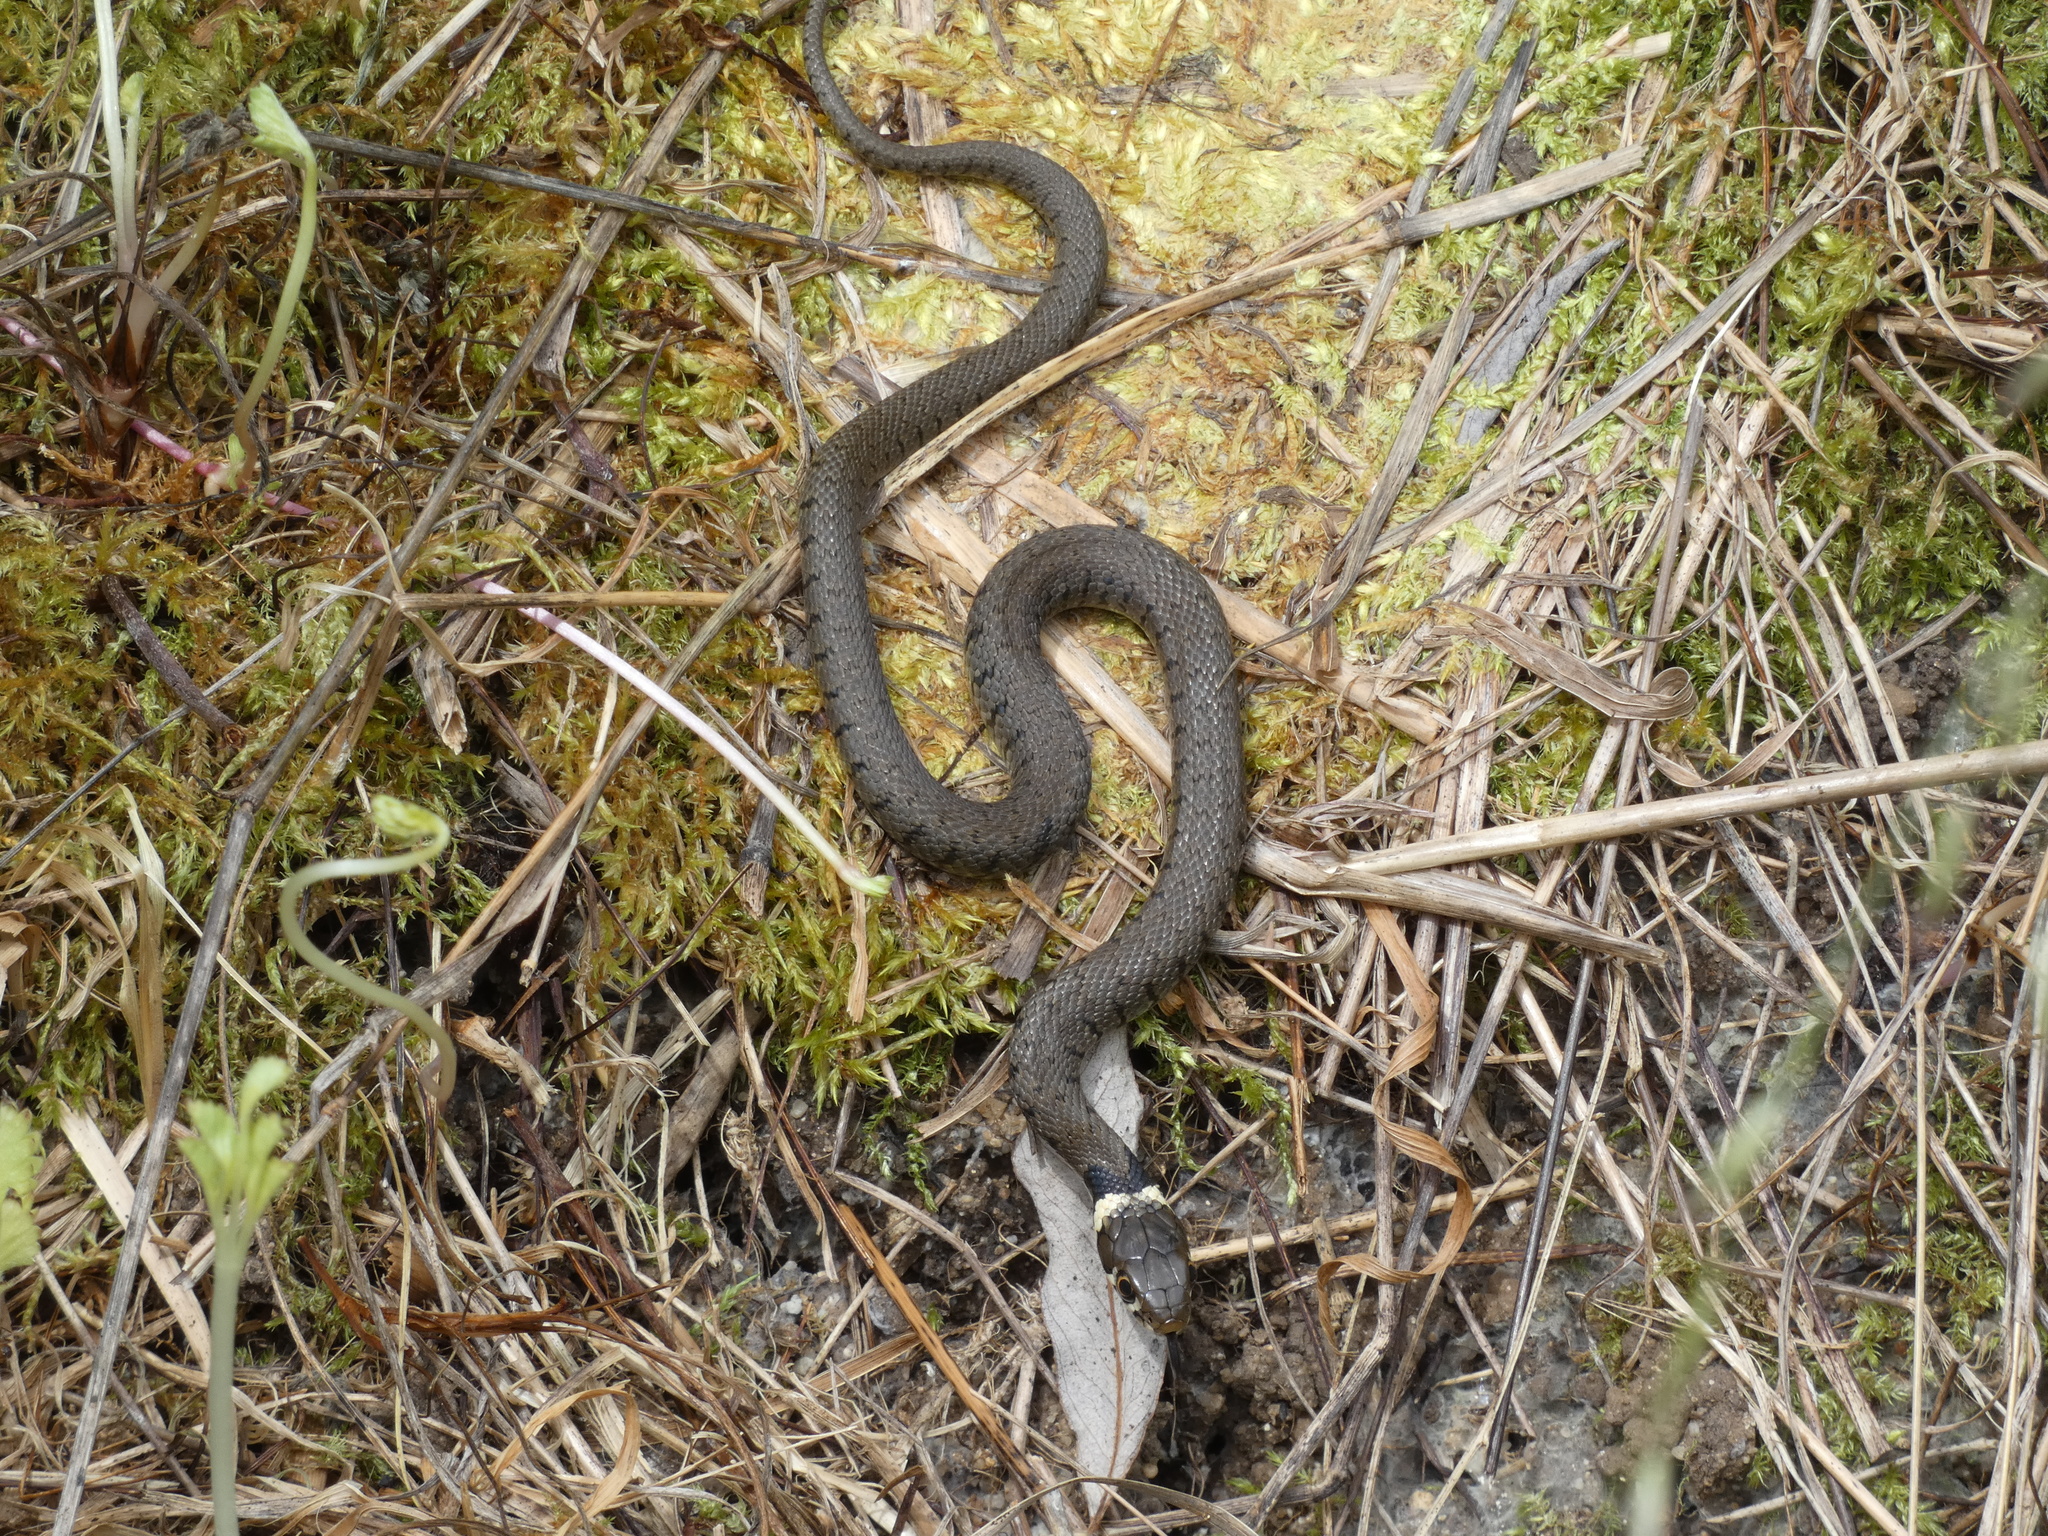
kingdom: Animalia
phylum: Chordata
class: Squamata
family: Colubridae
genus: Natrix
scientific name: Natrix helvetica
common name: Banded grass snake
